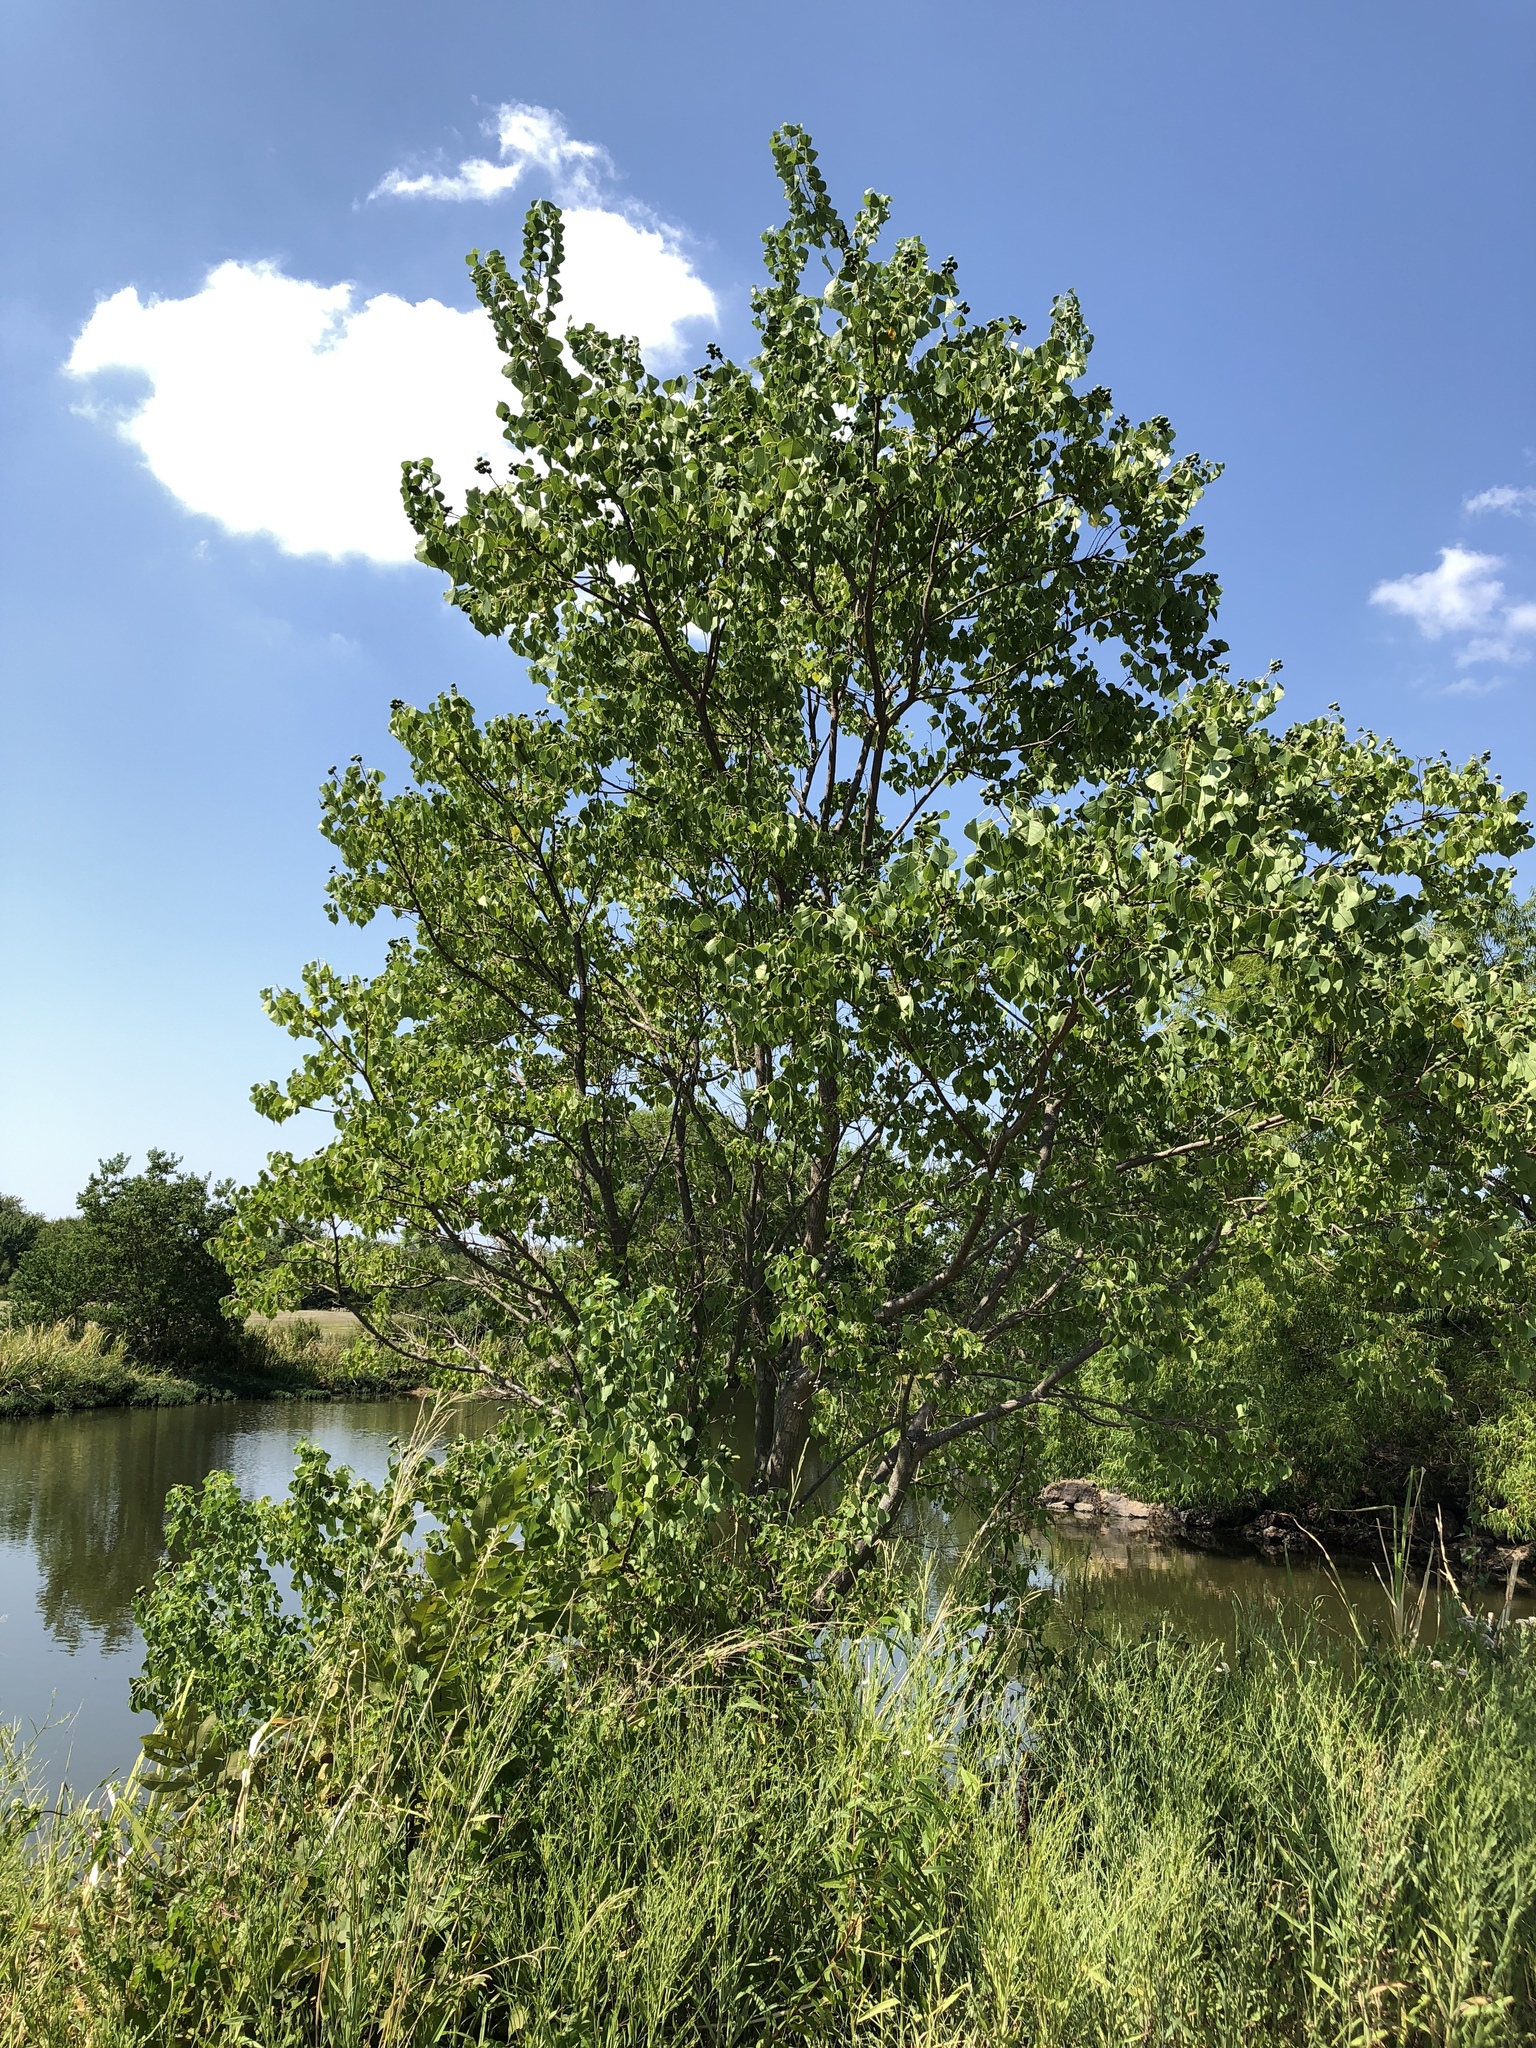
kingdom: Plantae
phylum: Tracheophyta
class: Magnoliopsida
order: Malpighiales
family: Euphorbiaceae
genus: Triadica
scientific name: Triadica sebifera
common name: Chinese tallow
